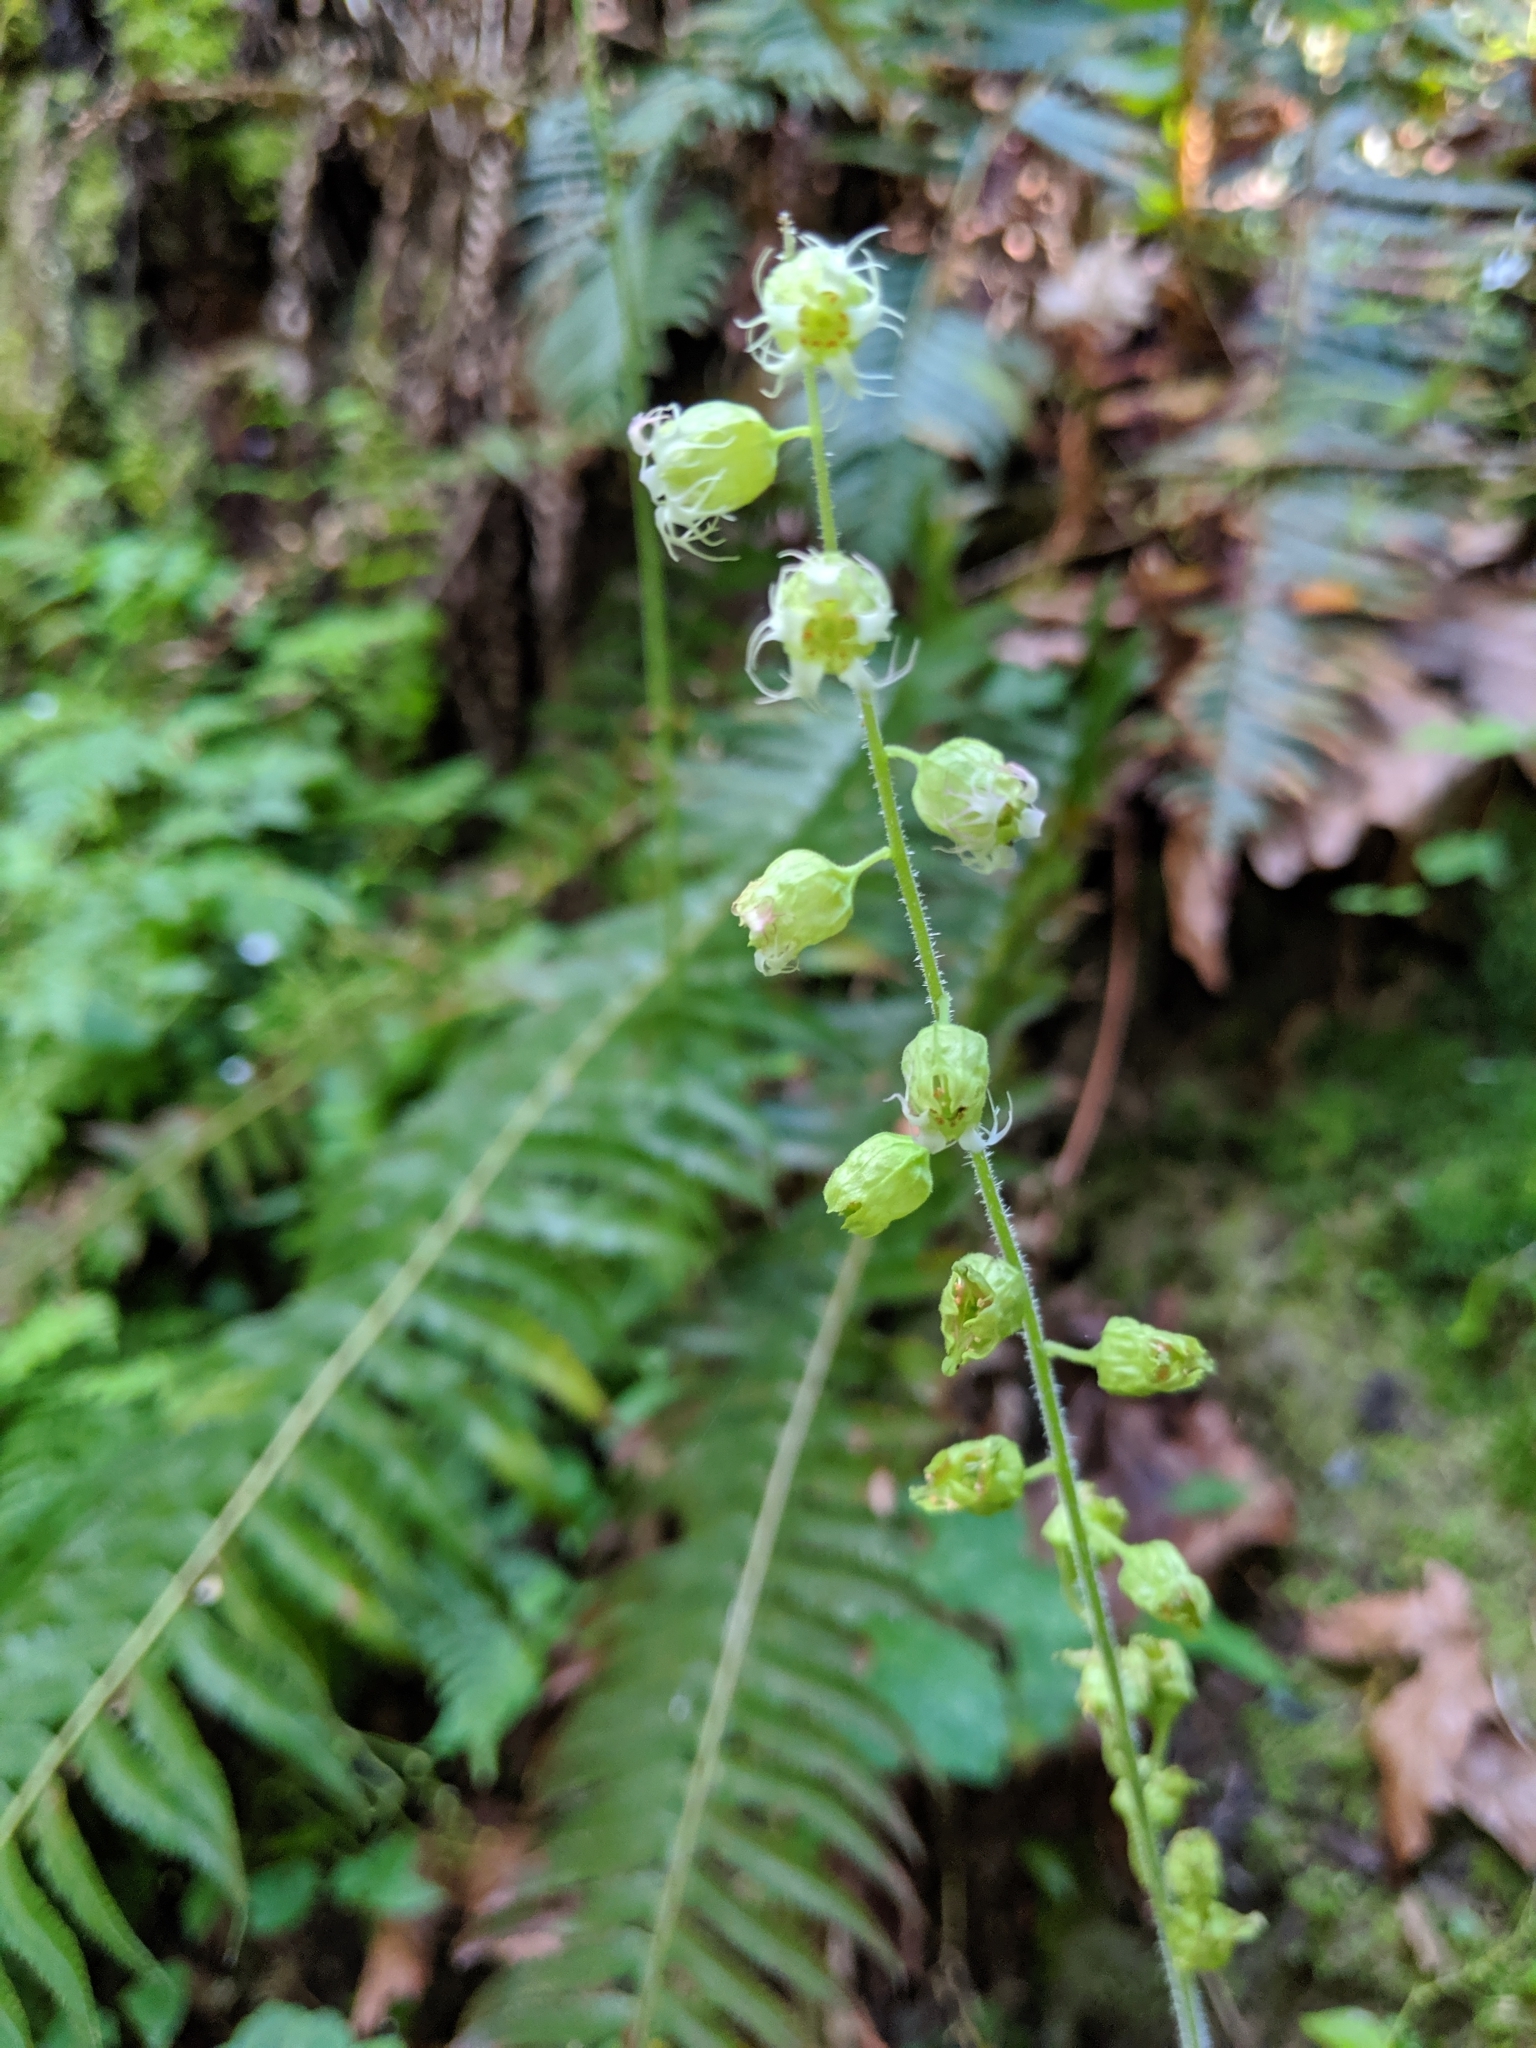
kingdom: Plantae
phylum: Tracheophyta
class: Magnoliopsida
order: Saxifragales
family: Saxifragaceae
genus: Tellima
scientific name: Tellima grandiflora
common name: Fringecups
